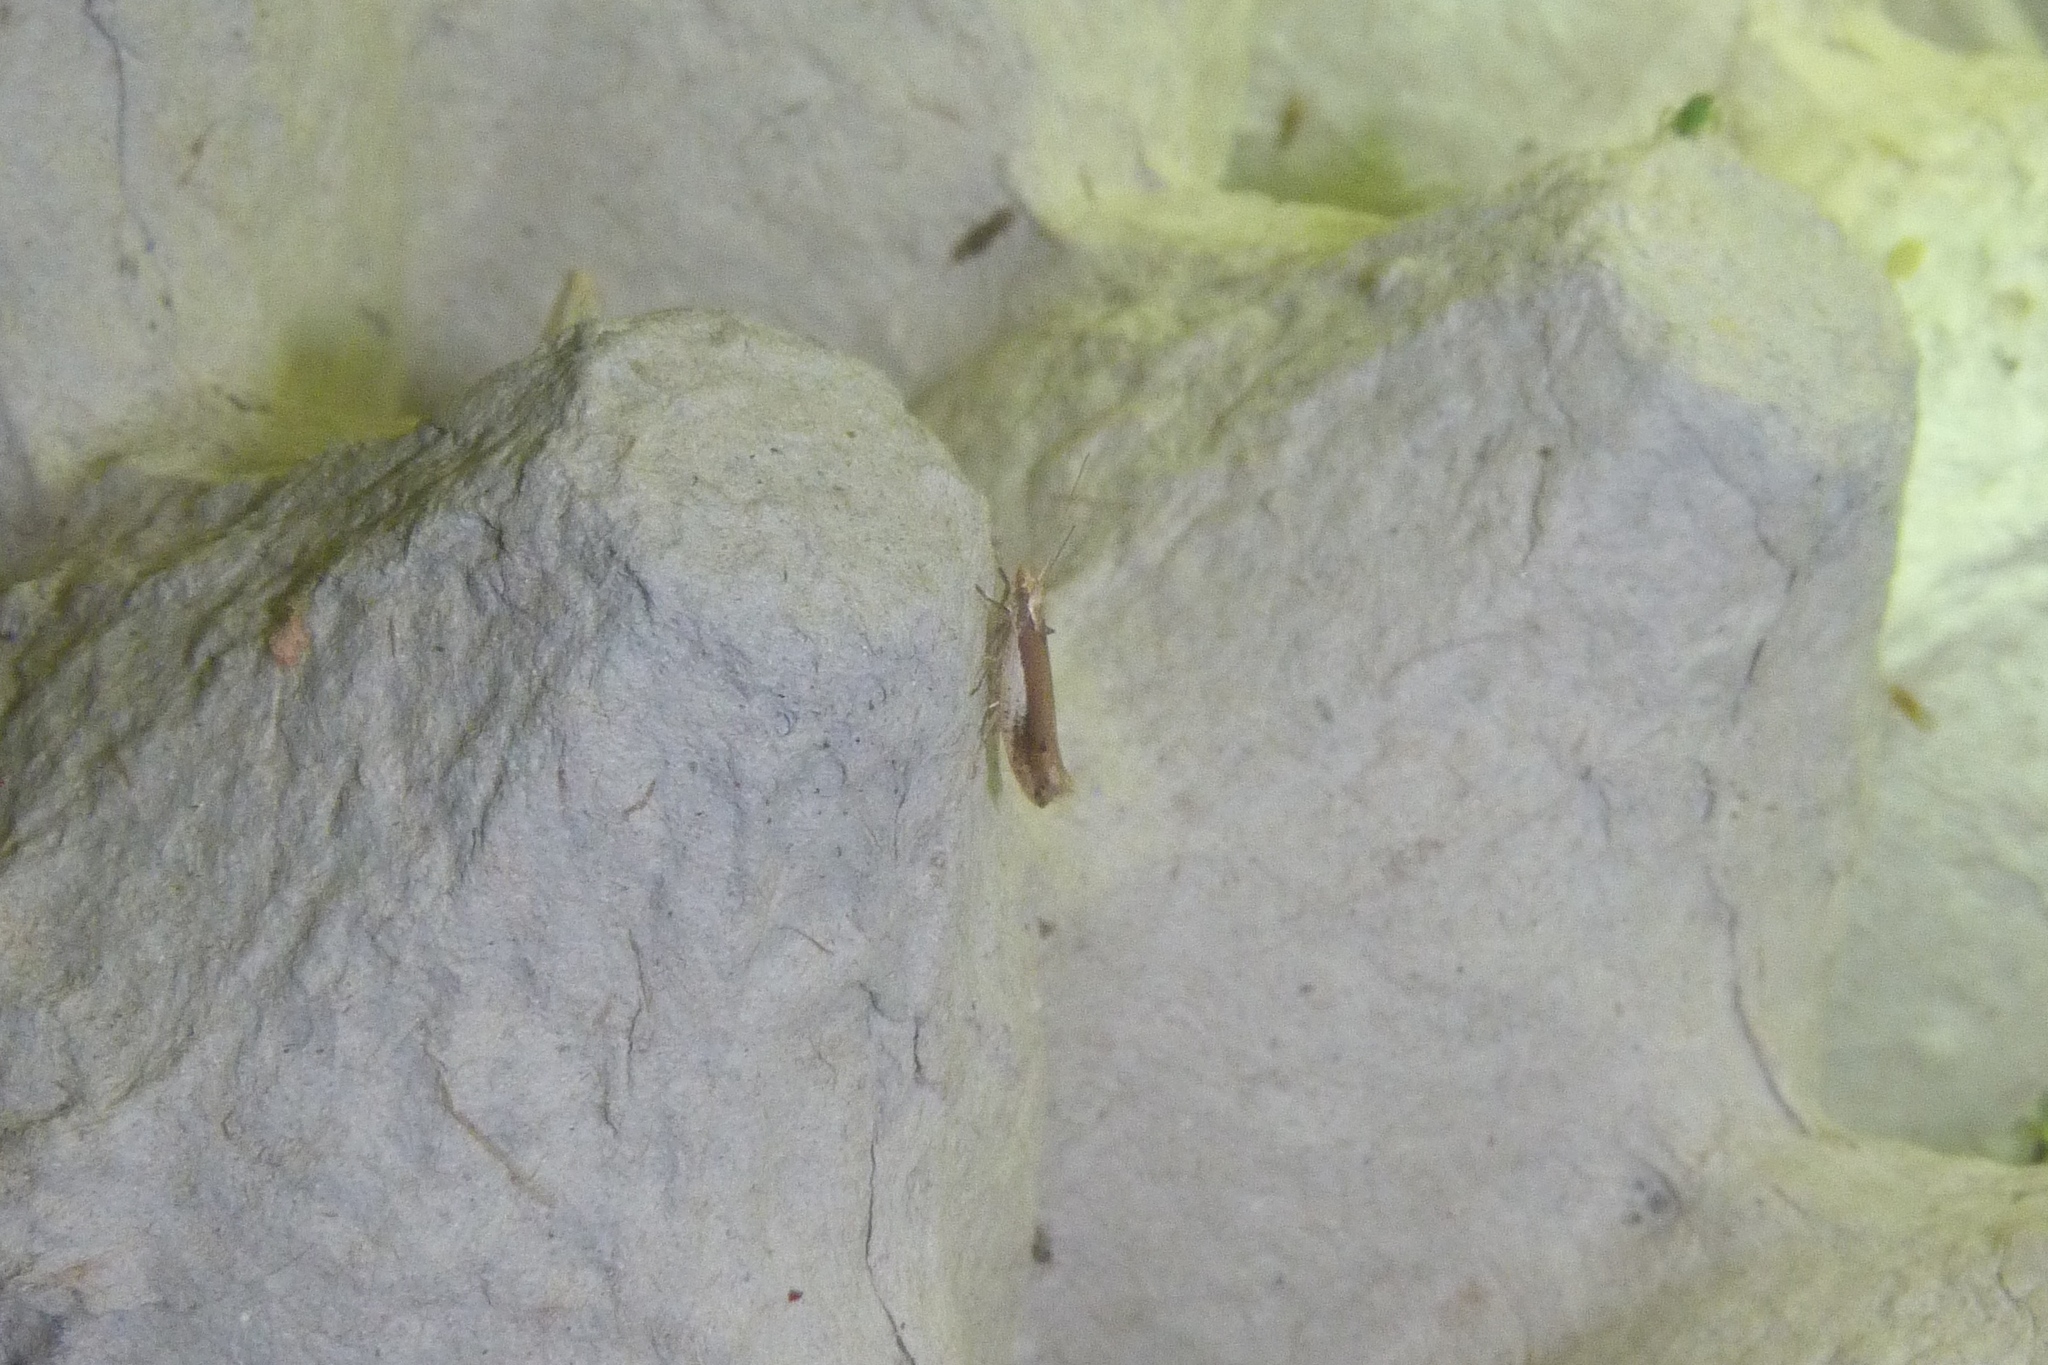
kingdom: Animalia
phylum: Arthropoda
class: Insecta
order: Lepidoptera
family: Ypsolophidae
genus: Ypsolopha
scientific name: Ypsolopha parenthesella
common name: White-shouldered smudge
